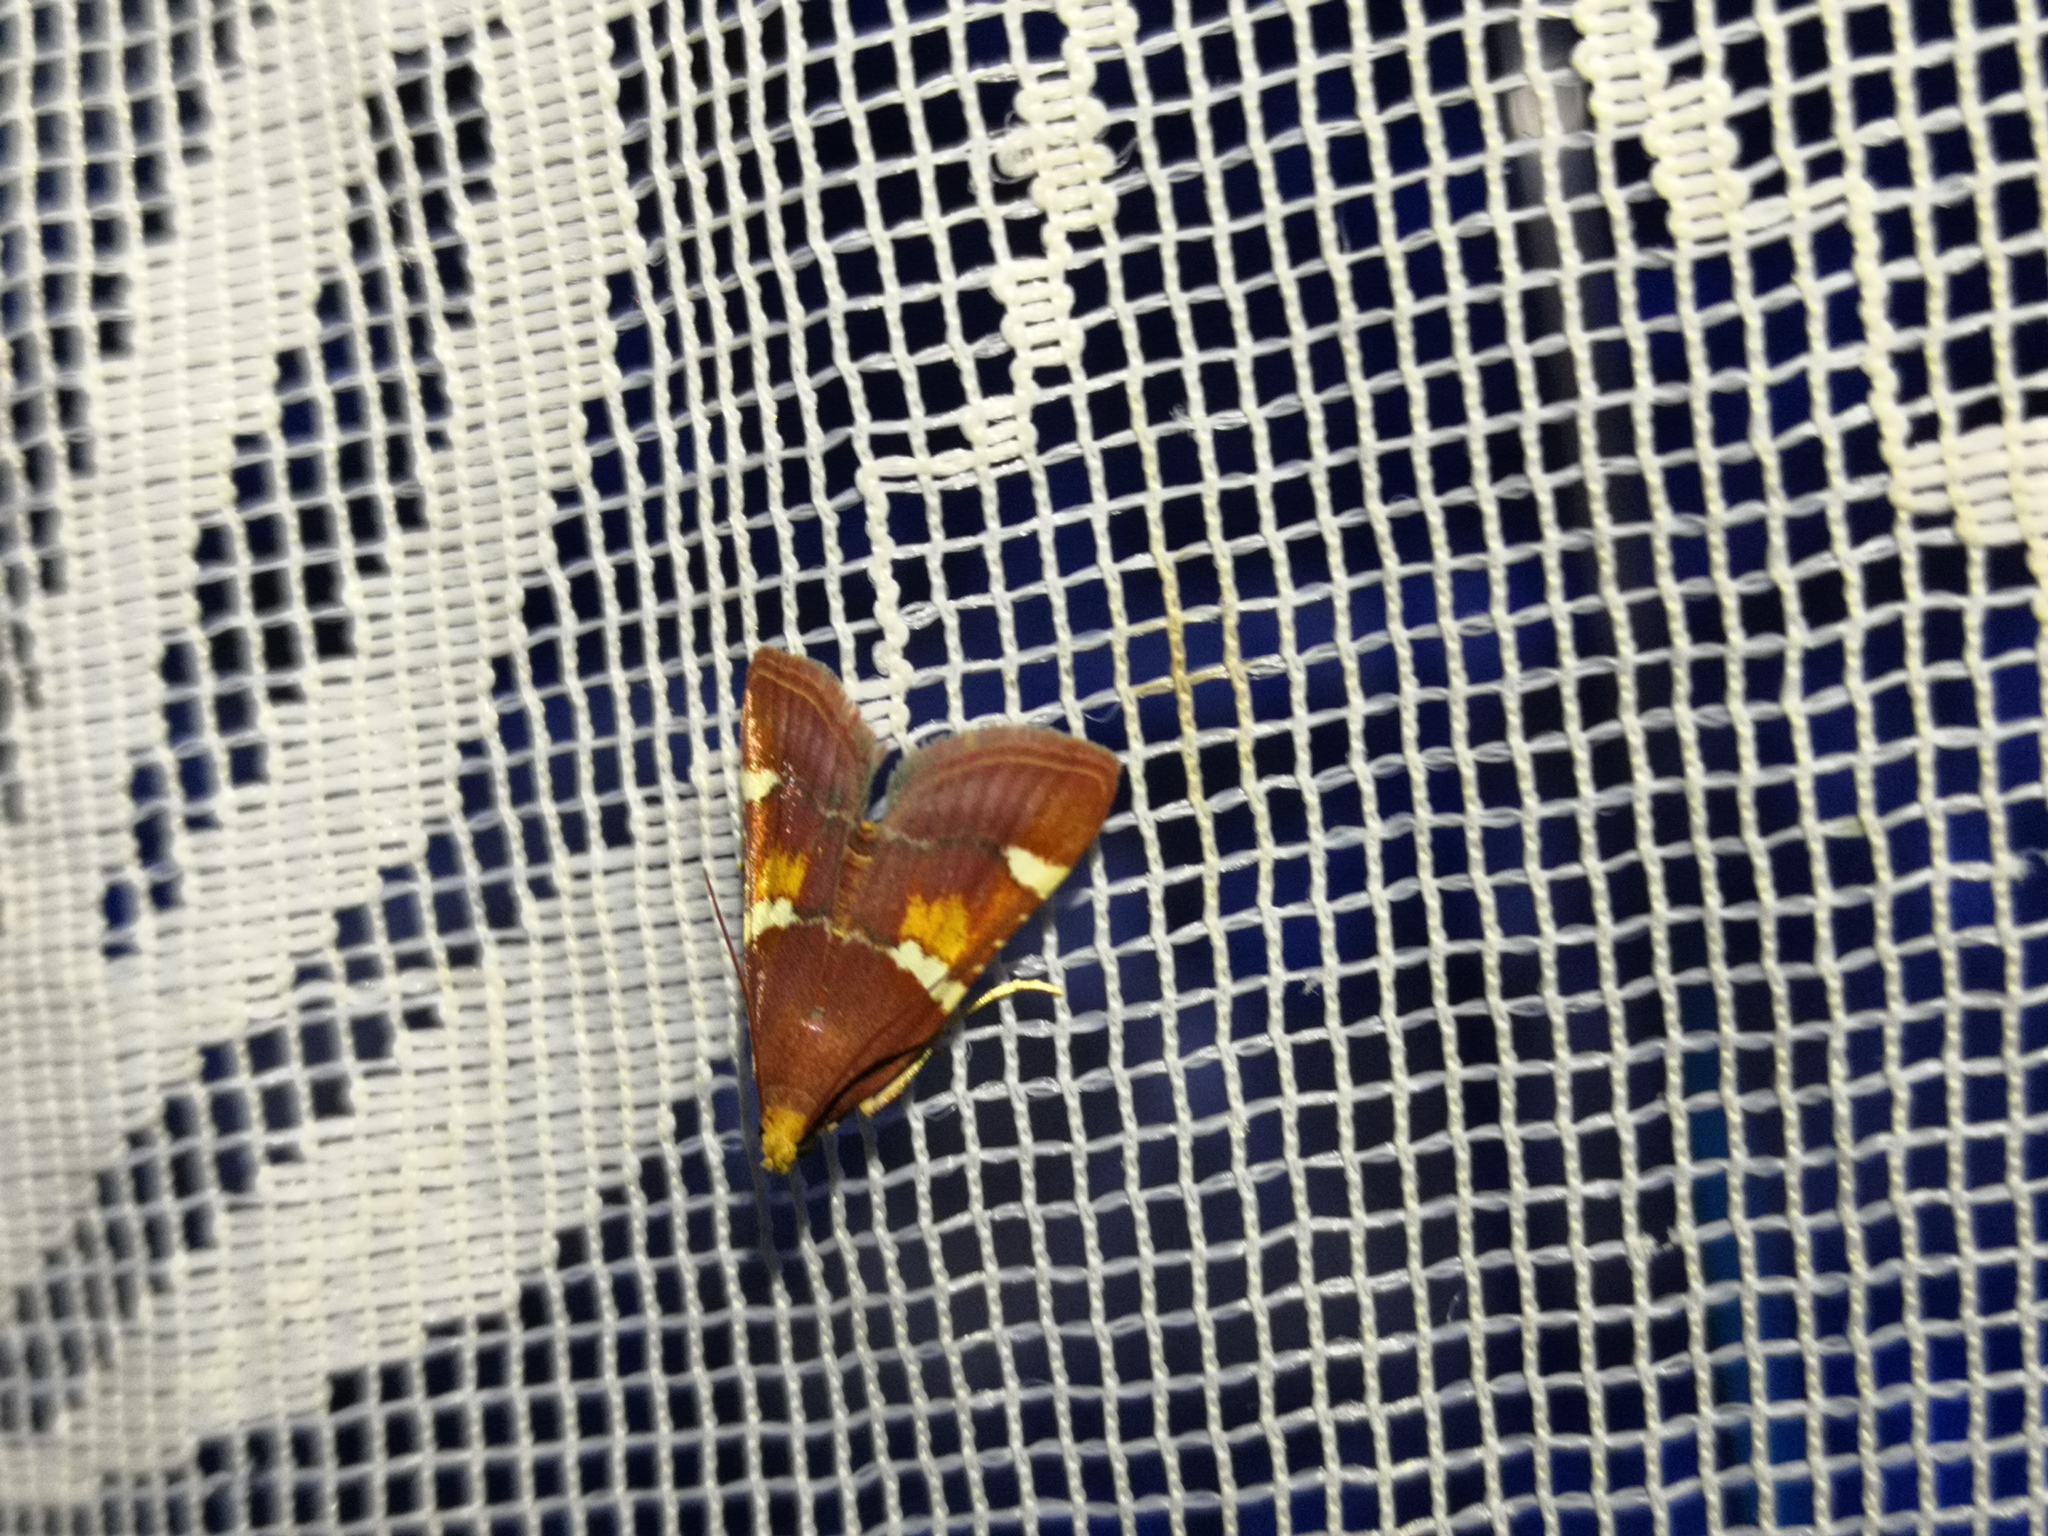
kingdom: Animalia
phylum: Arthropoda
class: Insecta
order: Lepidoptera
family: Pyralidae
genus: Pyralis
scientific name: Pyralis regalis
